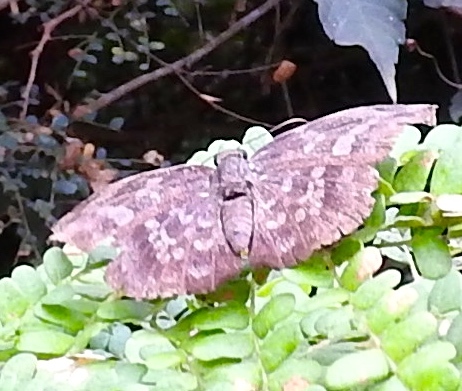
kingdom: Animalia
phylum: Arthropoda
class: Insecta
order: Lepidoptera
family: Hesperiidae
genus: Achlyodes
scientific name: Achlyodes thraso
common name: Sickle-winged skipper
